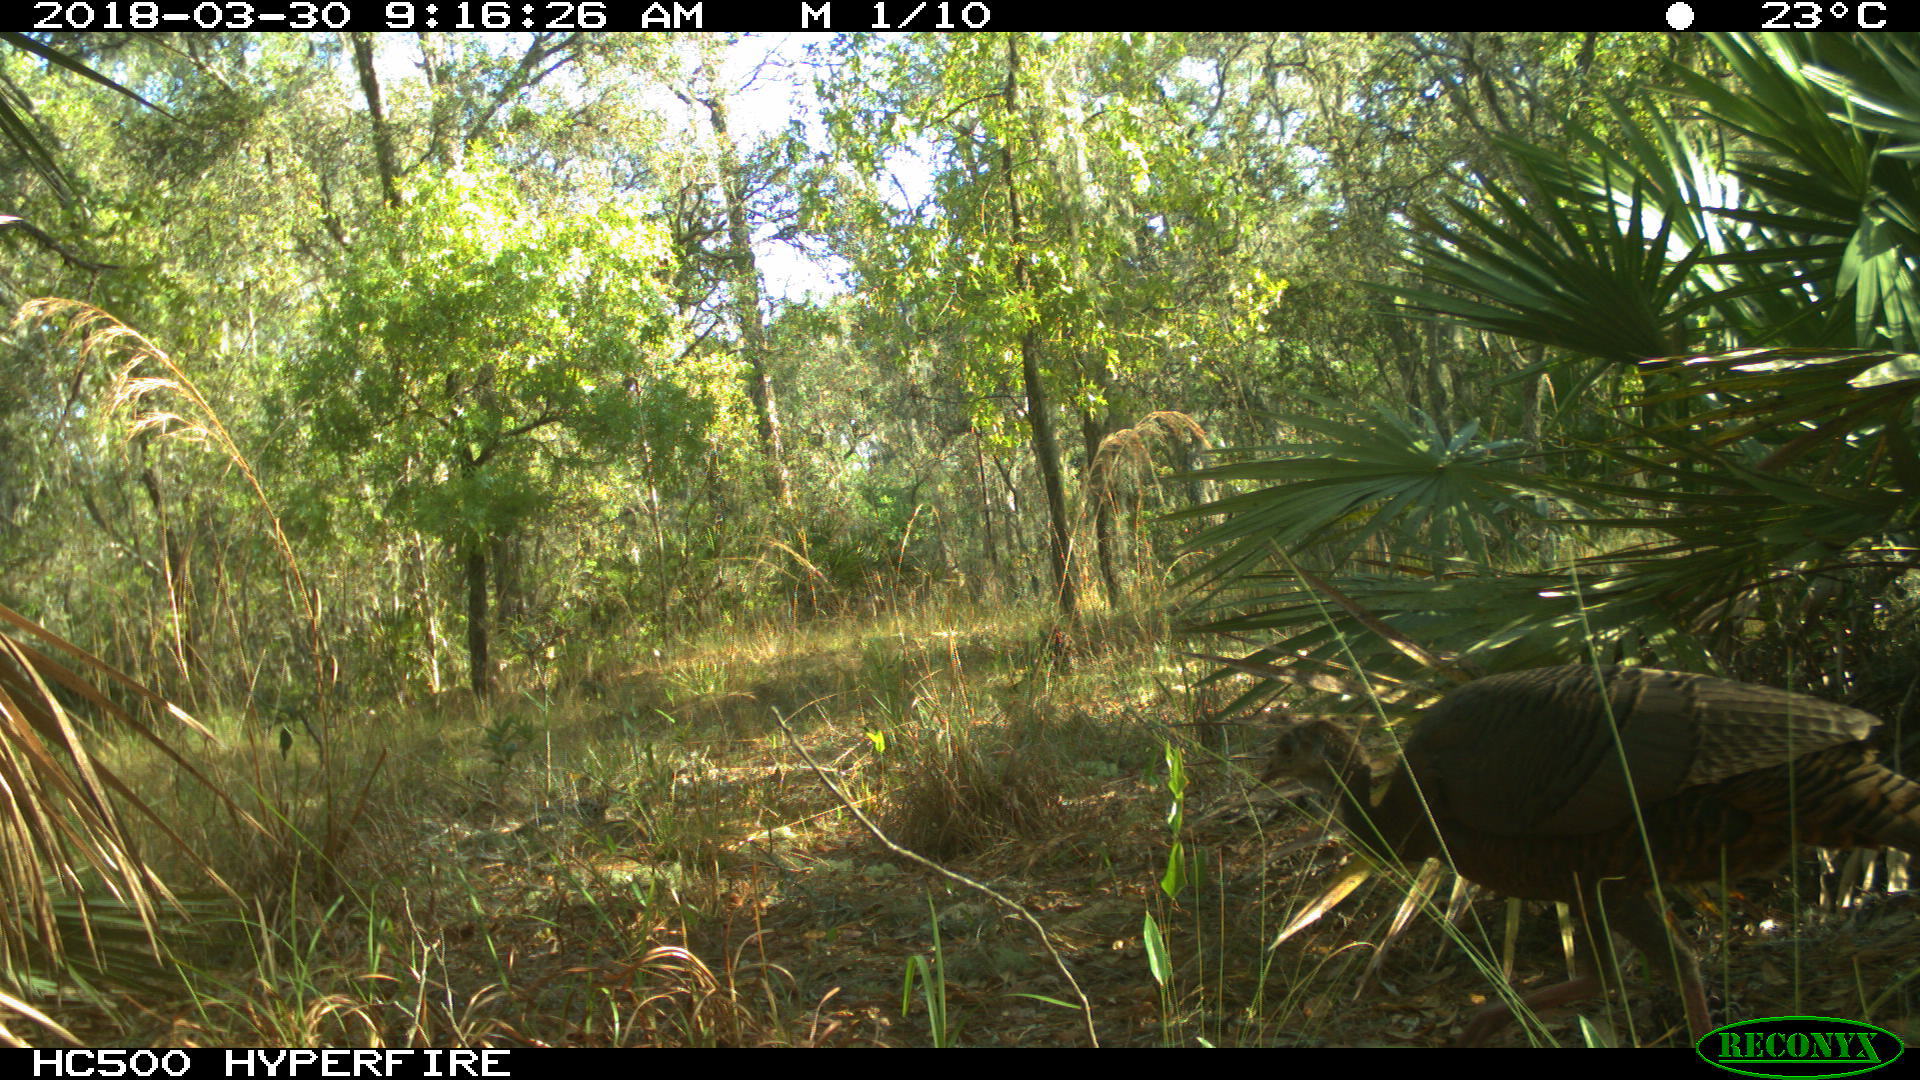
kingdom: Animalia
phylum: Chordata
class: Aves
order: Galliformes
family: Phasianidae
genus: Meleagris
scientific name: Meleagris gallopavo
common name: Wild turkey
